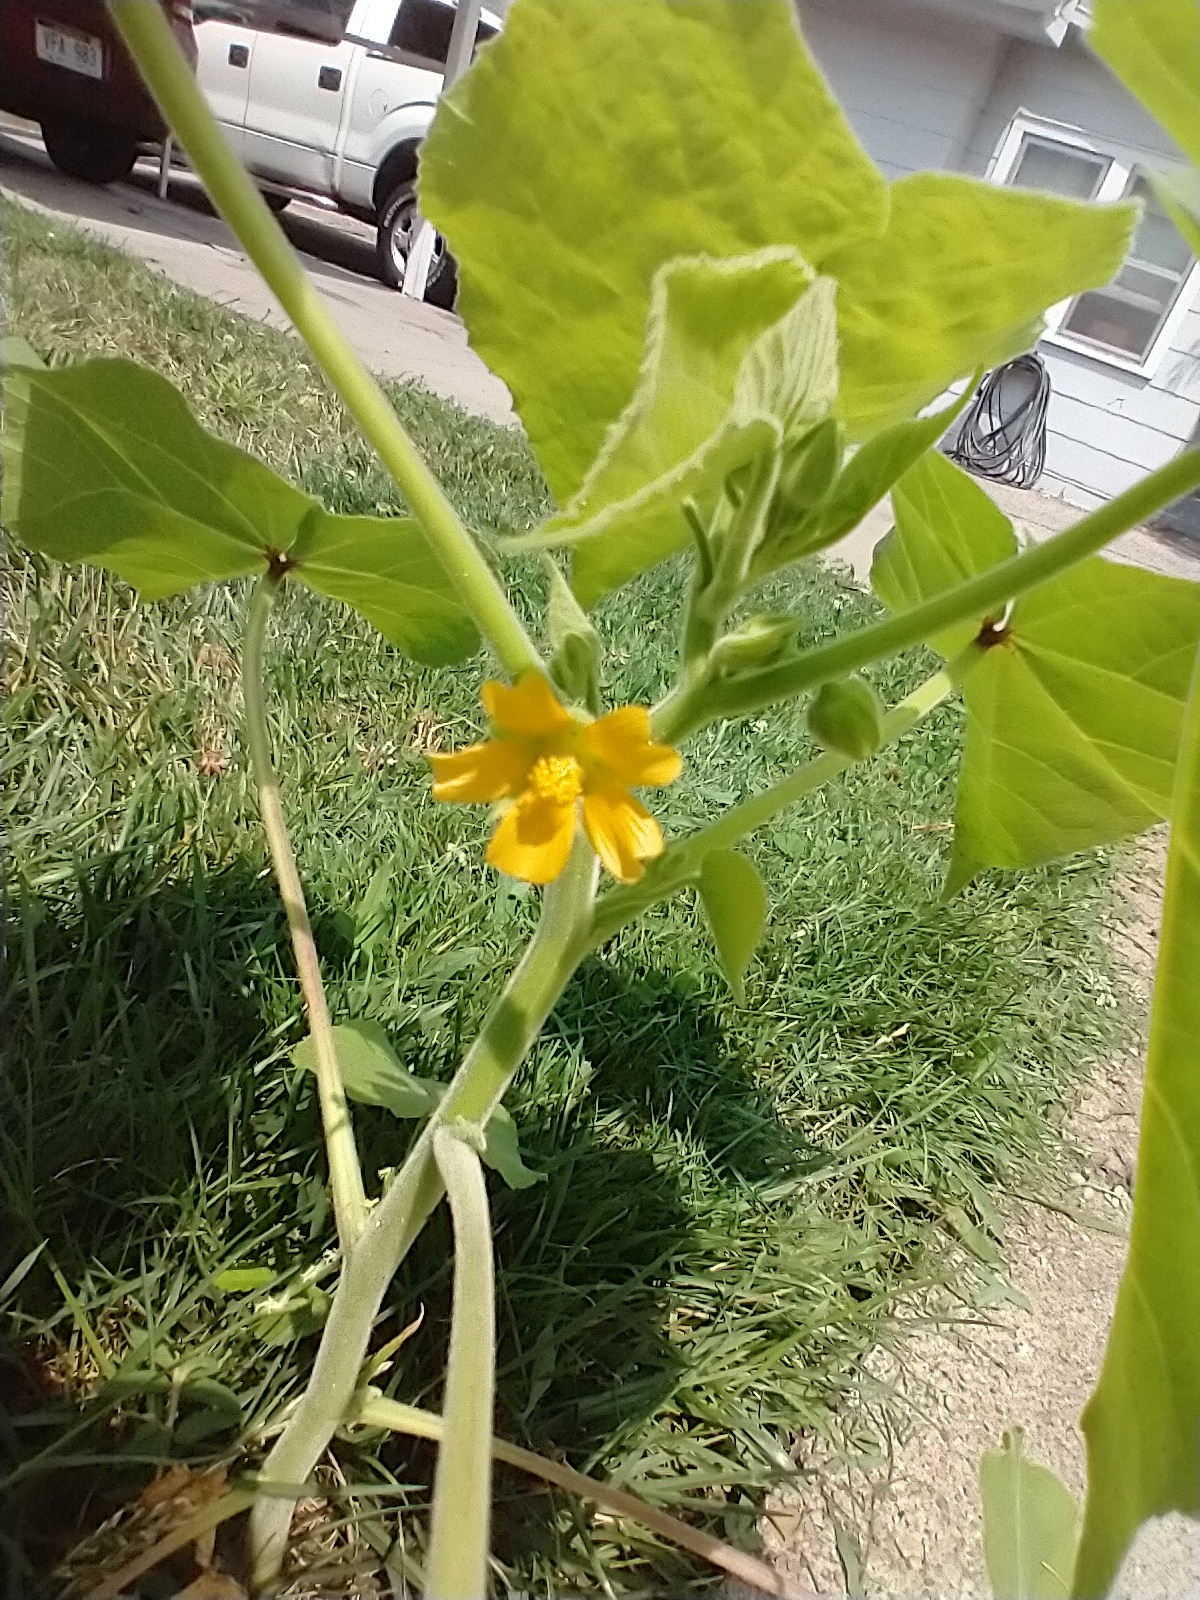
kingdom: Plantae
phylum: Tracheophyta
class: Magnoliopsida
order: Malvales
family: Malvaceae
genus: Abutilon
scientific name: Abutilon theophrasti
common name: Velvetleaf
